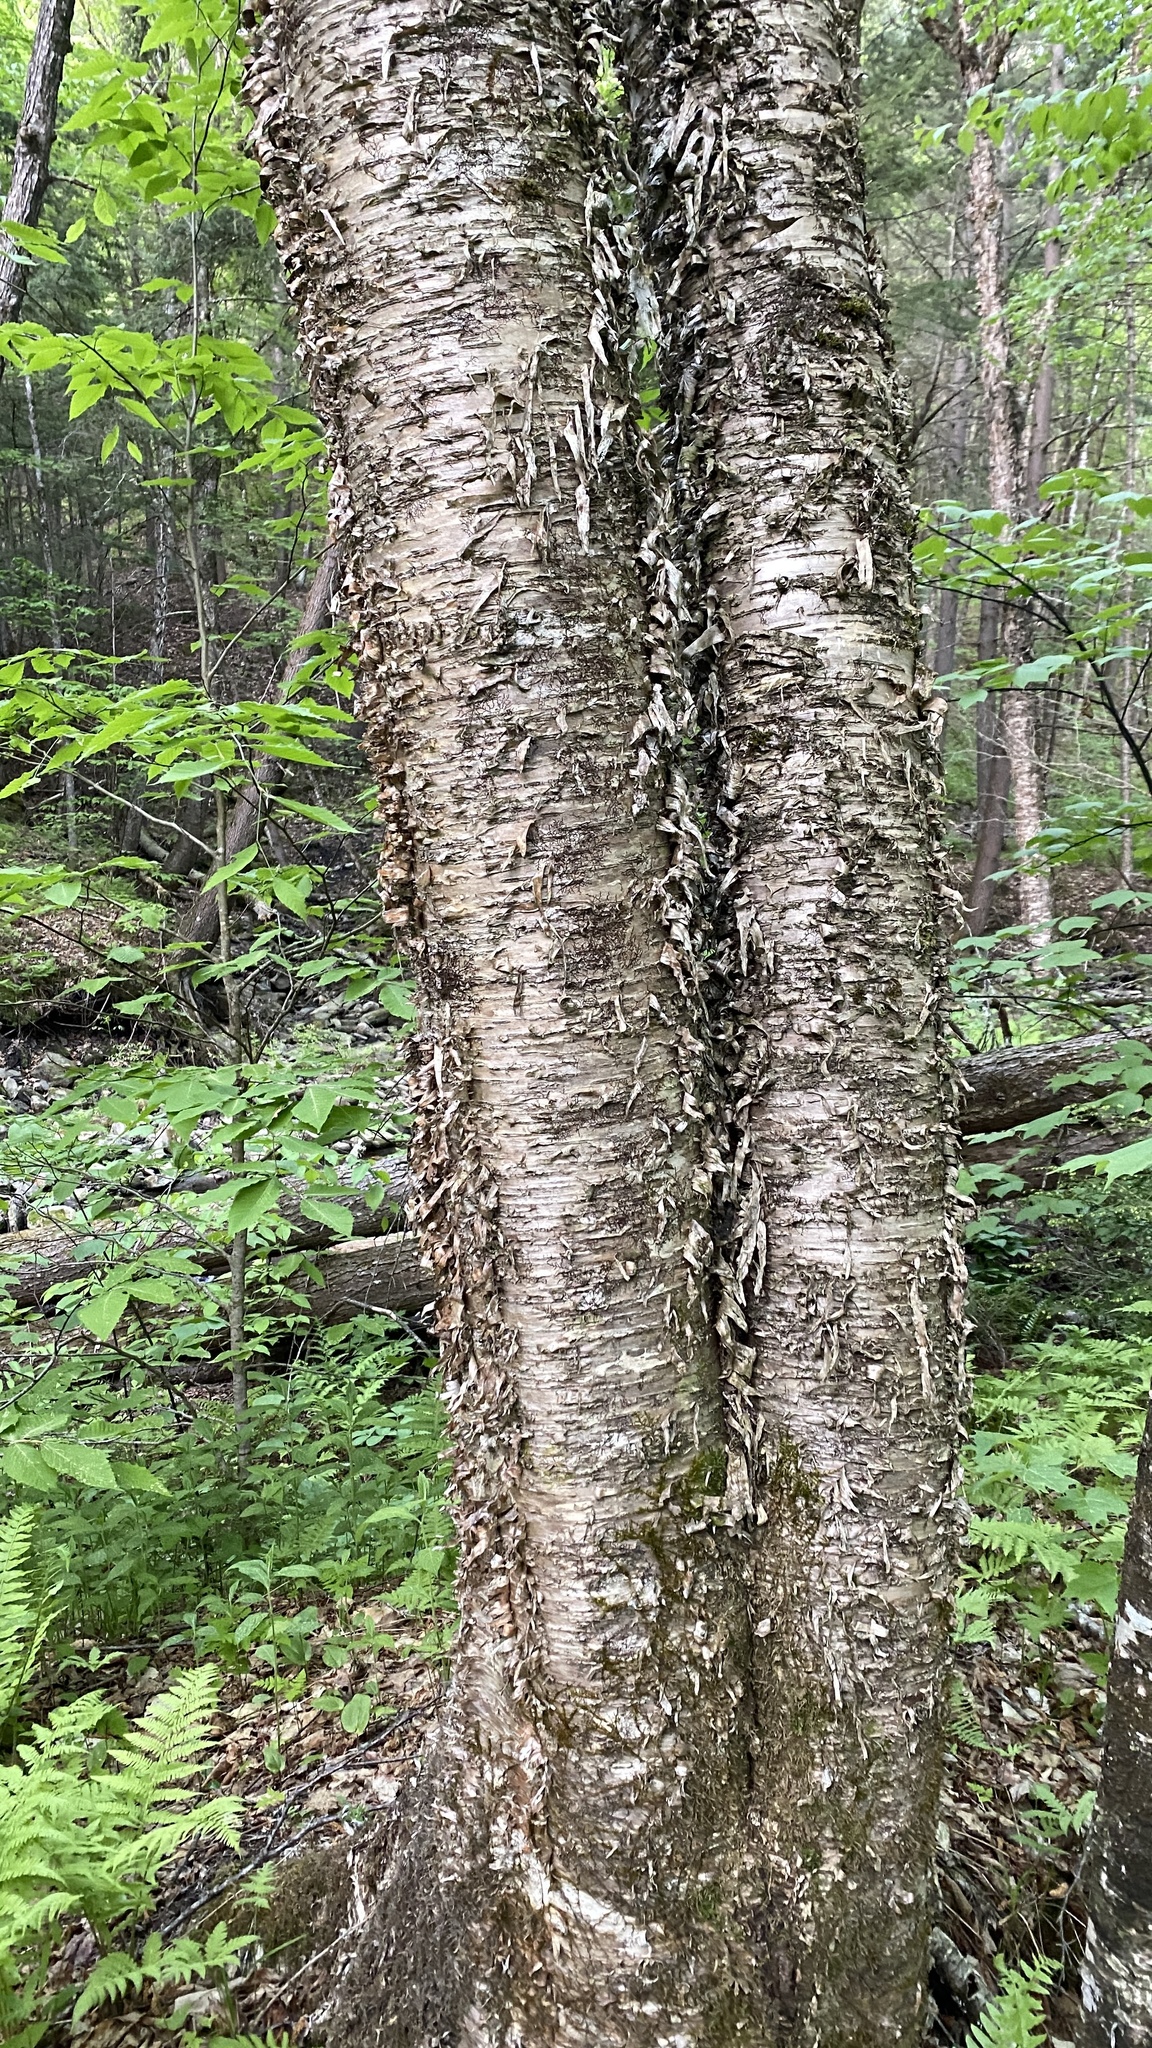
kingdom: Plantae
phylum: Tracheophyta
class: Magnoliopsida
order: Fagales
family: Betulaceae
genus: Betula
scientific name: Betula alleghaniensis
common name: Yellow birch
